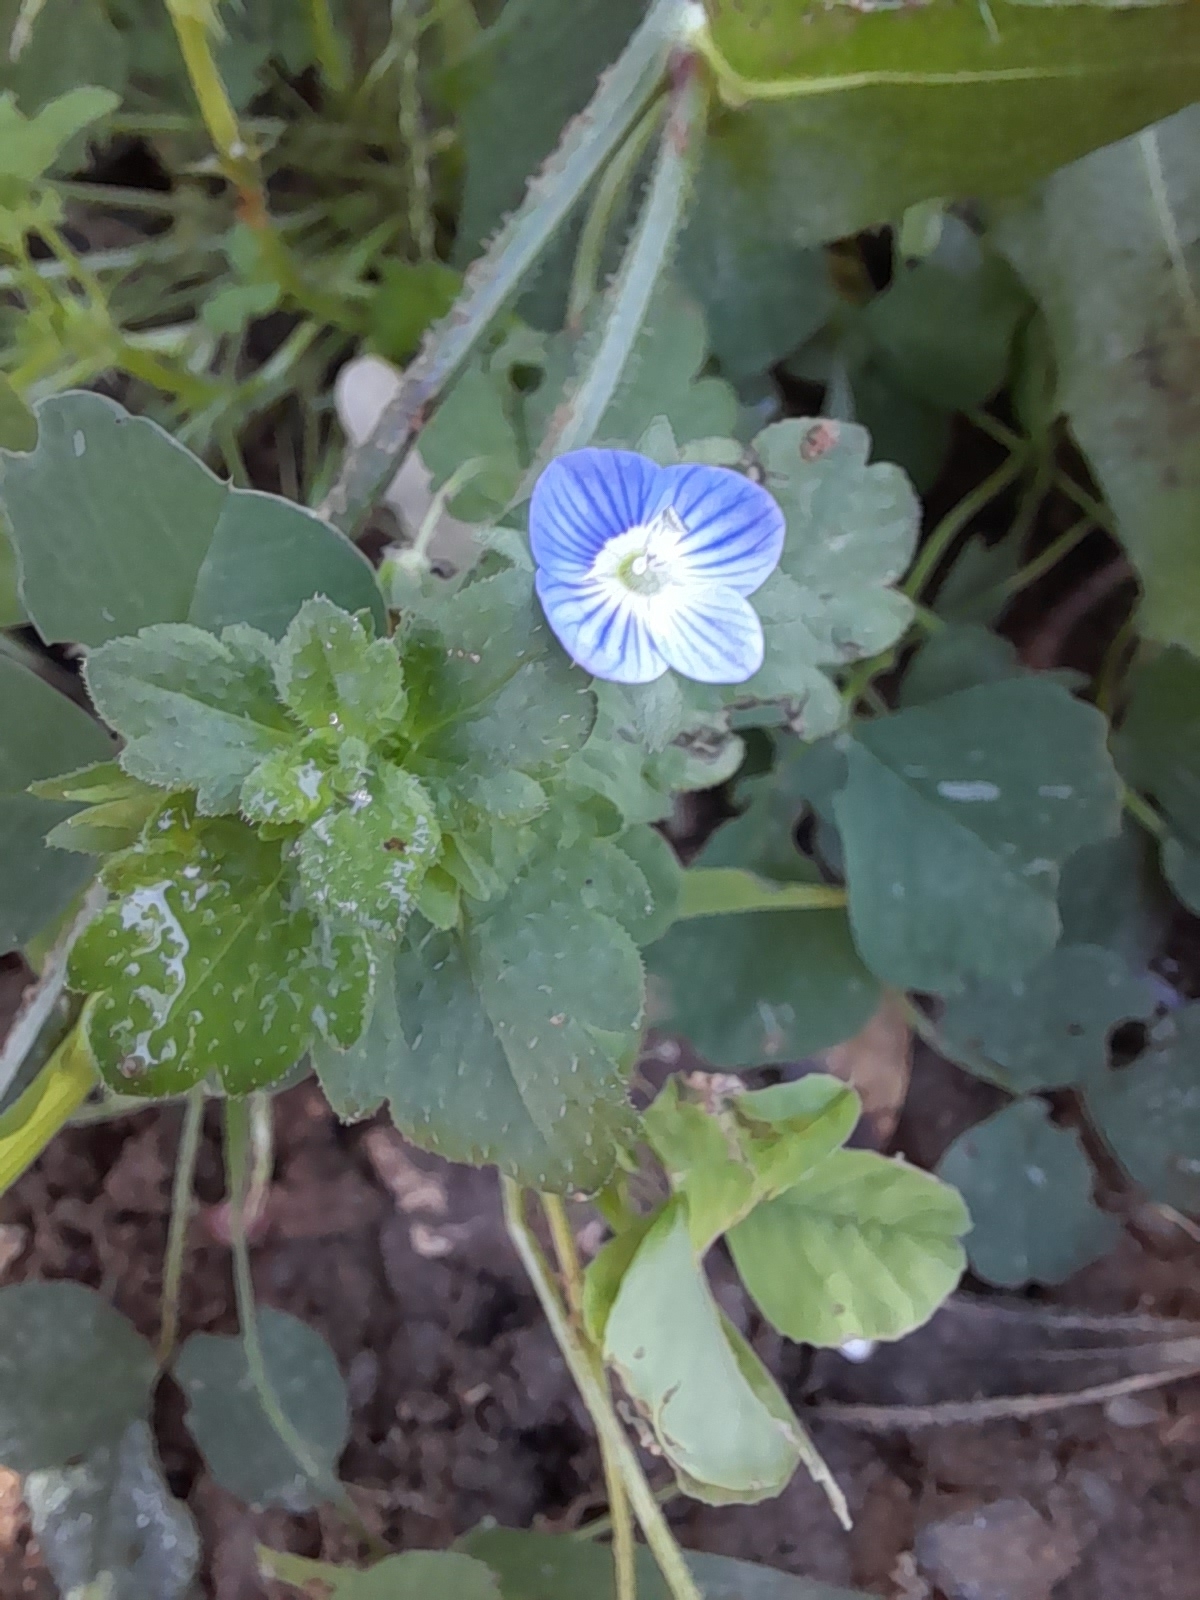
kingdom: Plantae
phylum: Tracheophyta
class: Magnoliopsida
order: Lamiales
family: Plantaginaceae
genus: Veronica
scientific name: Veronica persica
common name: Common field-speedwell
